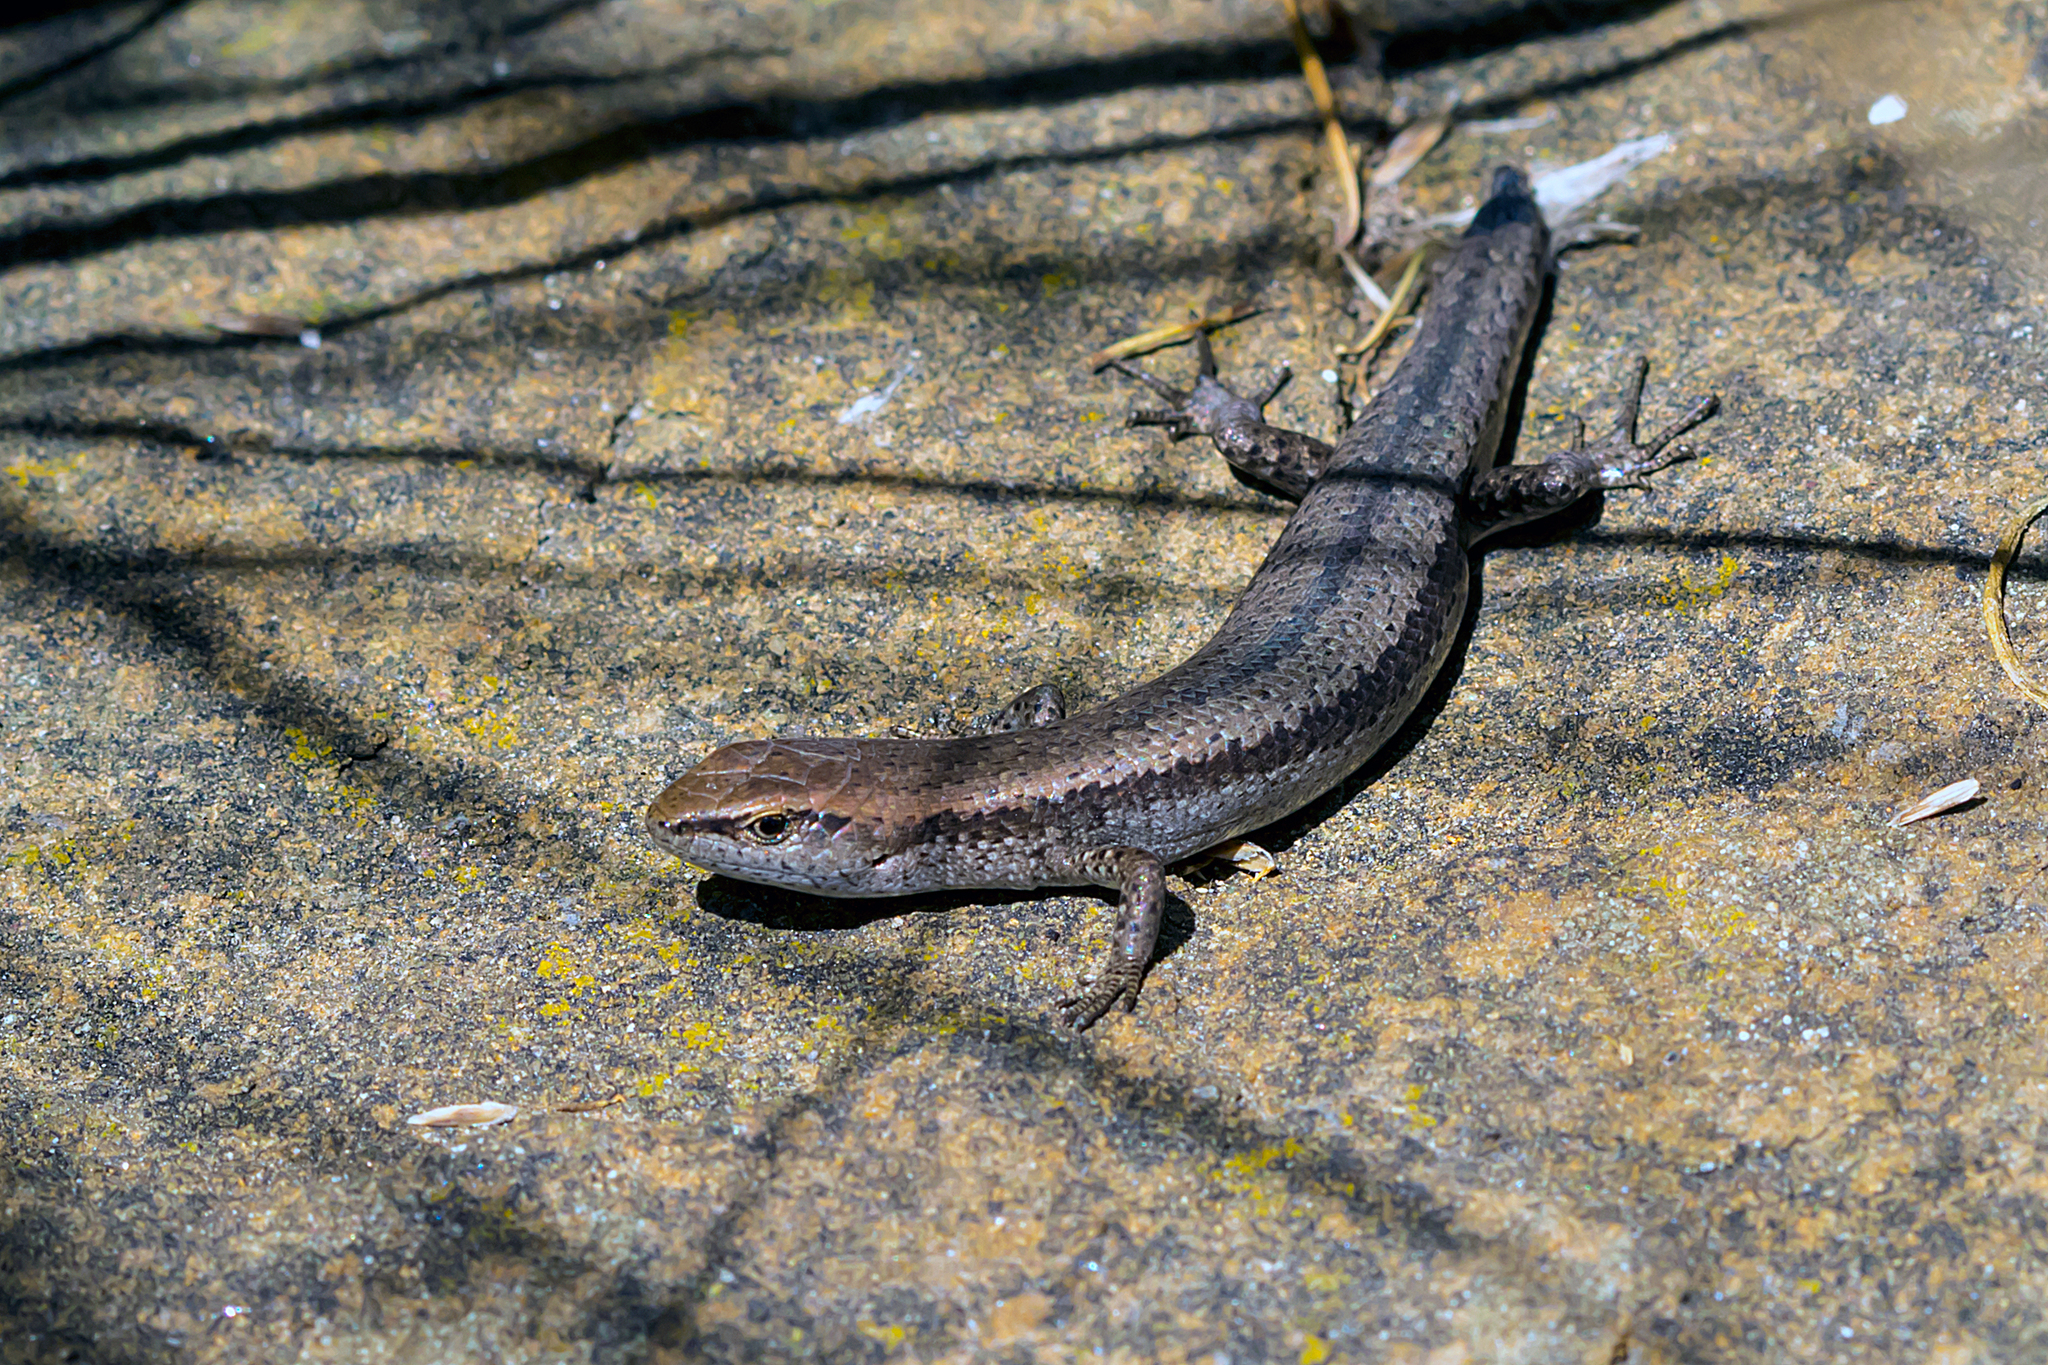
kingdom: Animalia
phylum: Chordata
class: Squamata
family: Scincidae
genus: Lampropholis
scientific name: Lampropholis guichenoti
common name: Garden skink
